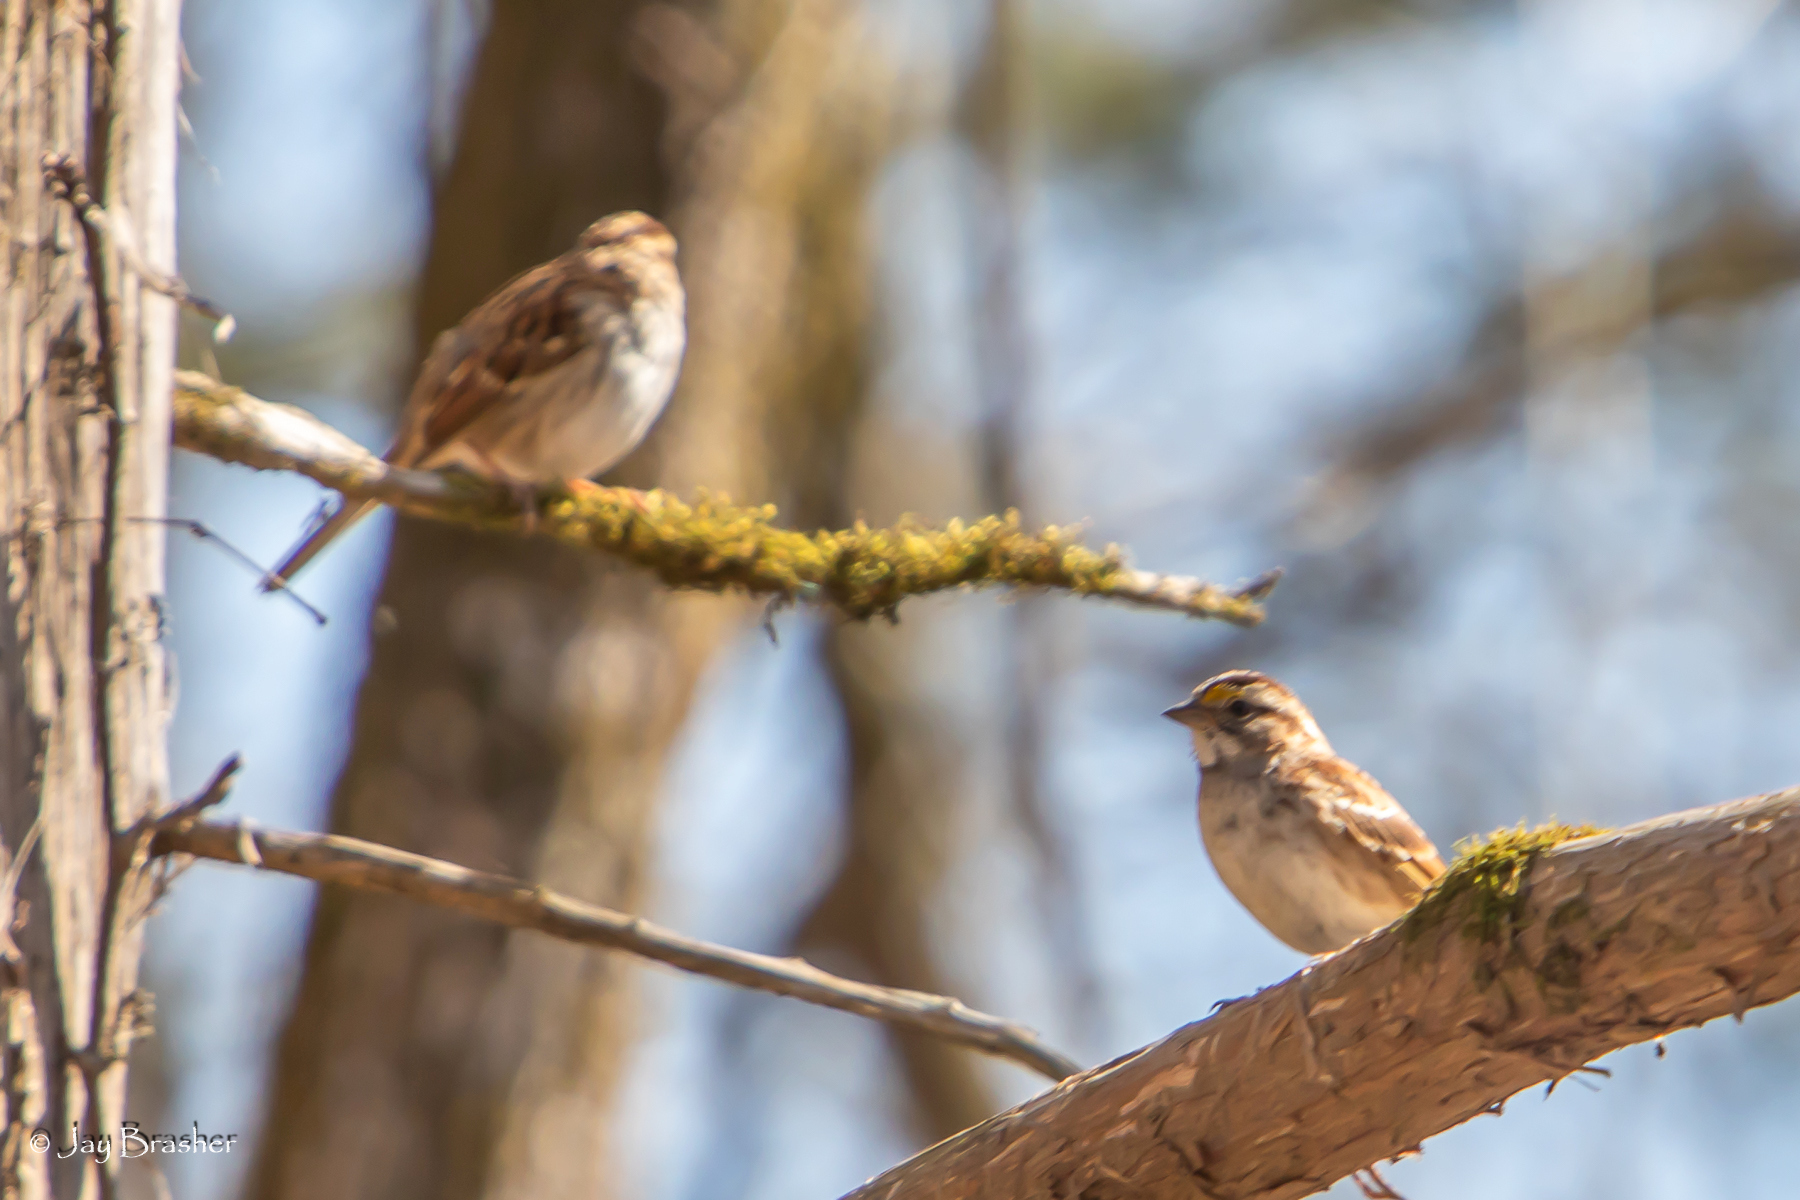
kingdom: Animalia
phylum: Chordata
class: Aves
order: Passeriformes
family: Passerellidae
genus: Zonotrichia
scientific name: Zonotrichia albicollis
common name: White-throated sparrow
